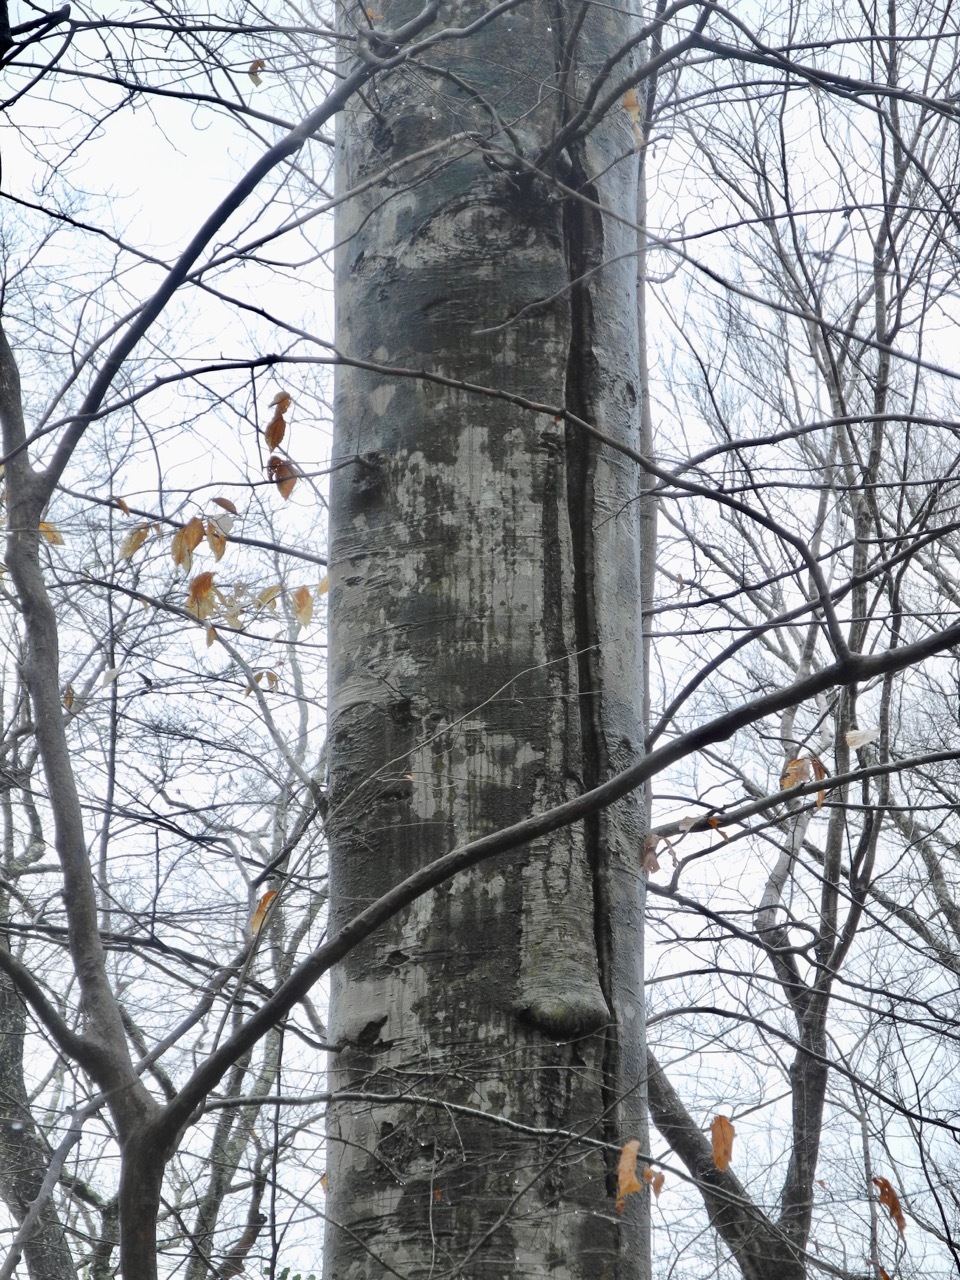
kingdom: Plantae
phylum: Tracheophyta
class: Magnoliopsida
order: Fagales
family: Fagaceae
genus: Fagus
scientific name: Fagus grandifolia
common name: American beech
